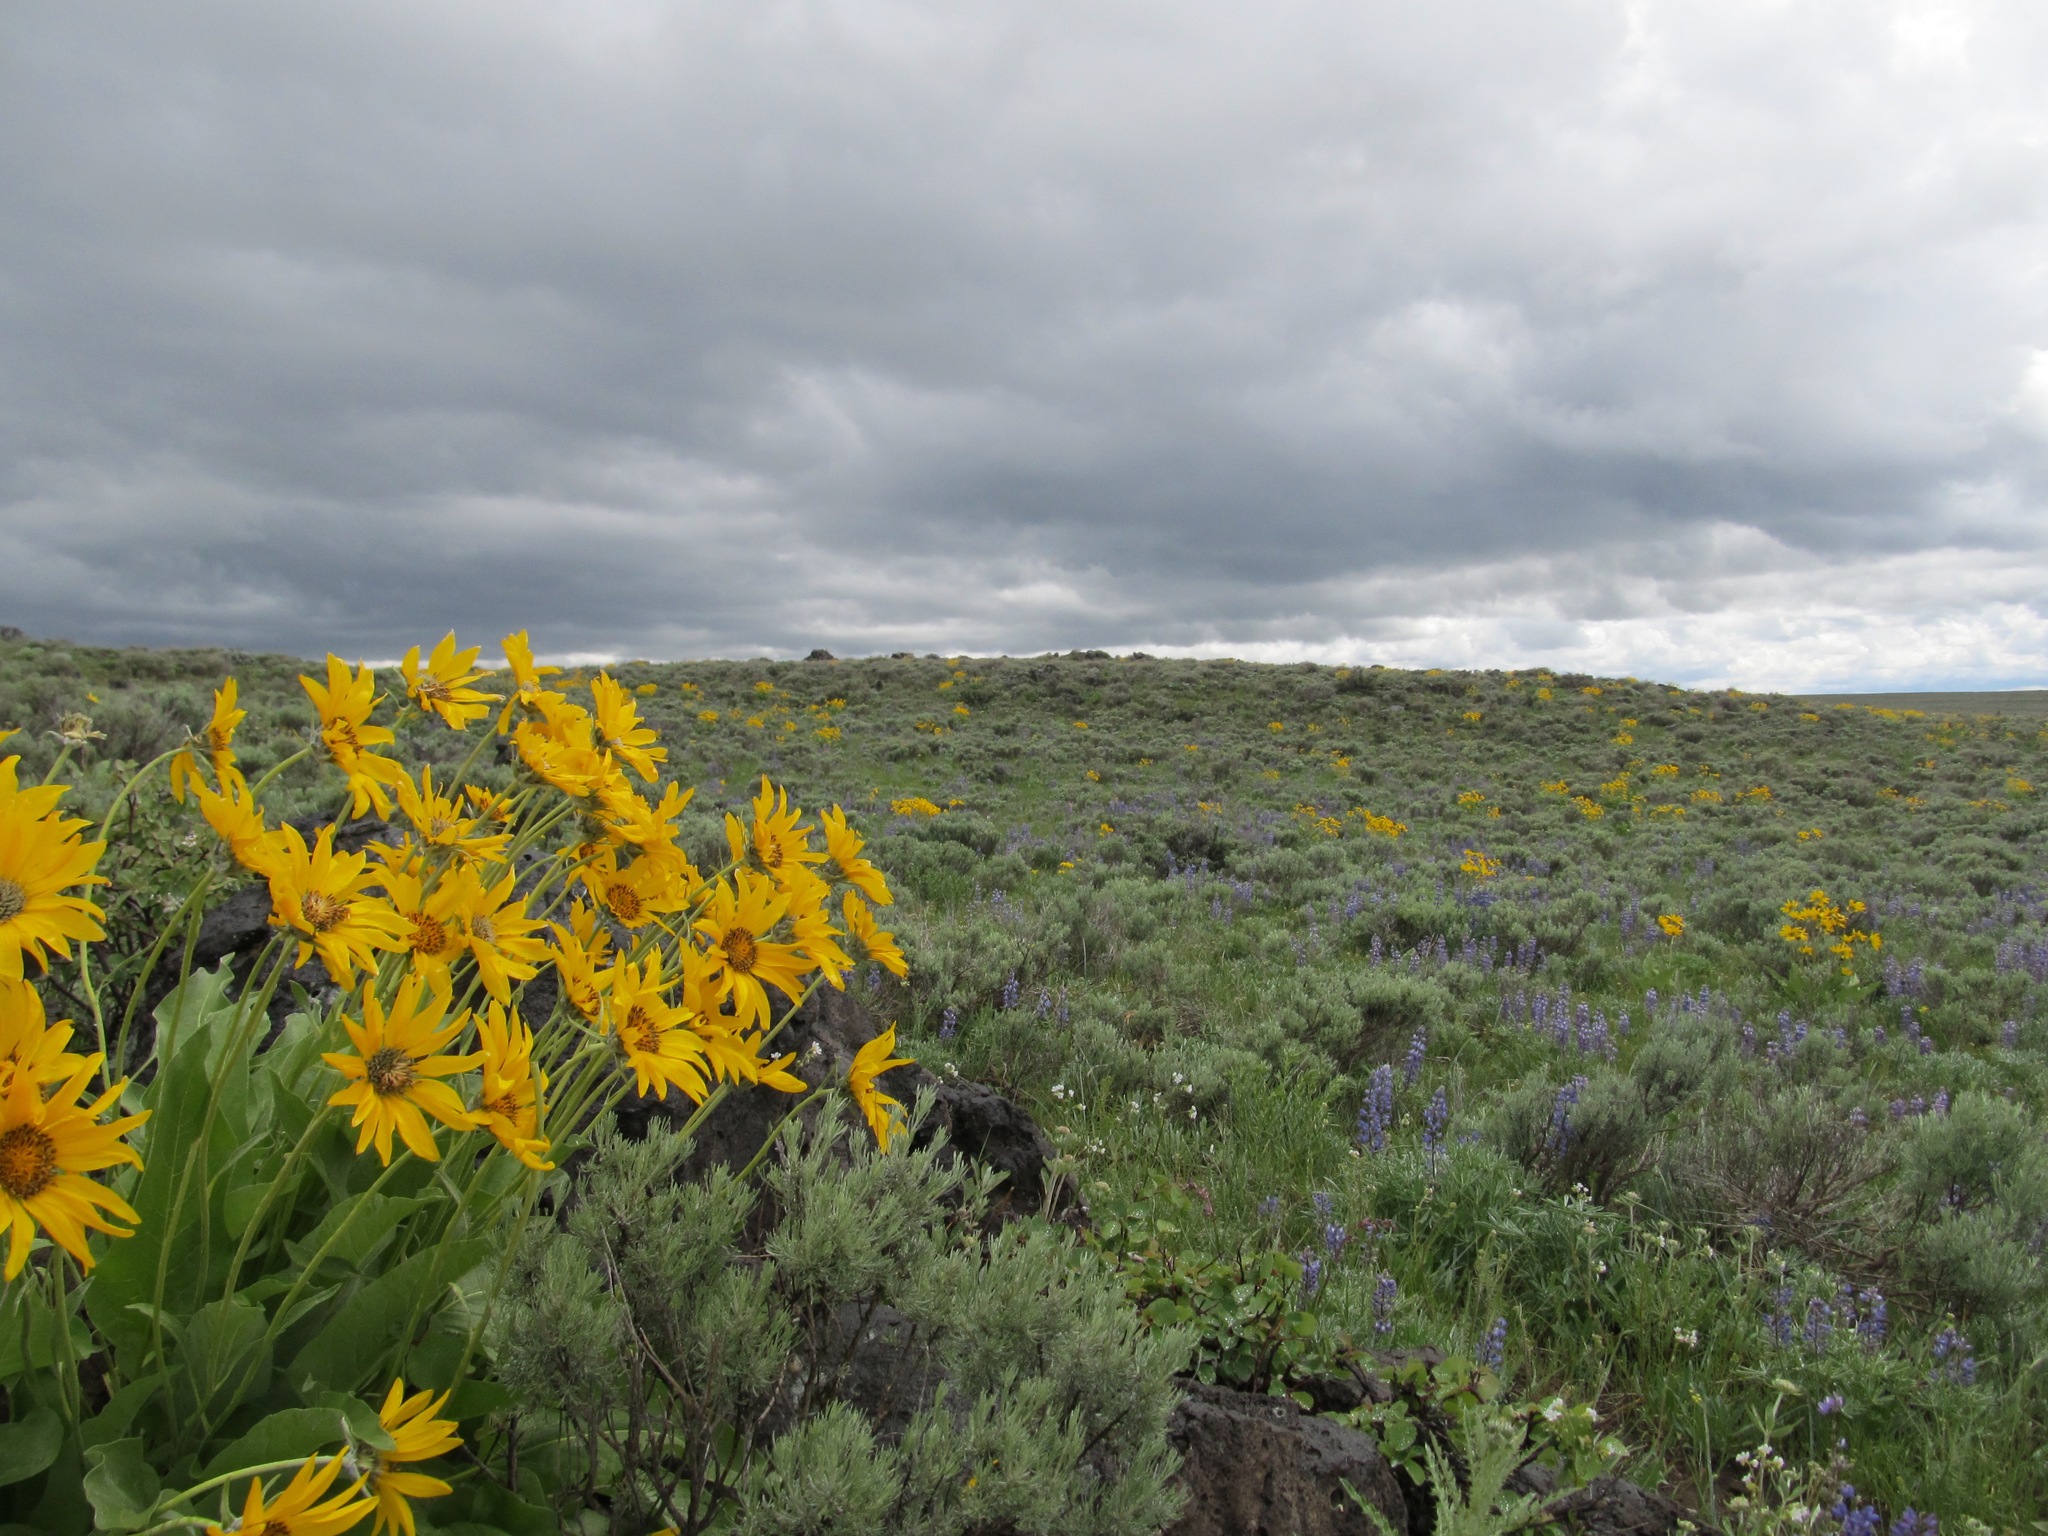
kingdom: Plantae
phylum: Tracheophyta
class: Magnoliopsida
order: Asterales
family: Asteraceae
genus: Wyethia
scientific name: Wyethia sagittata
